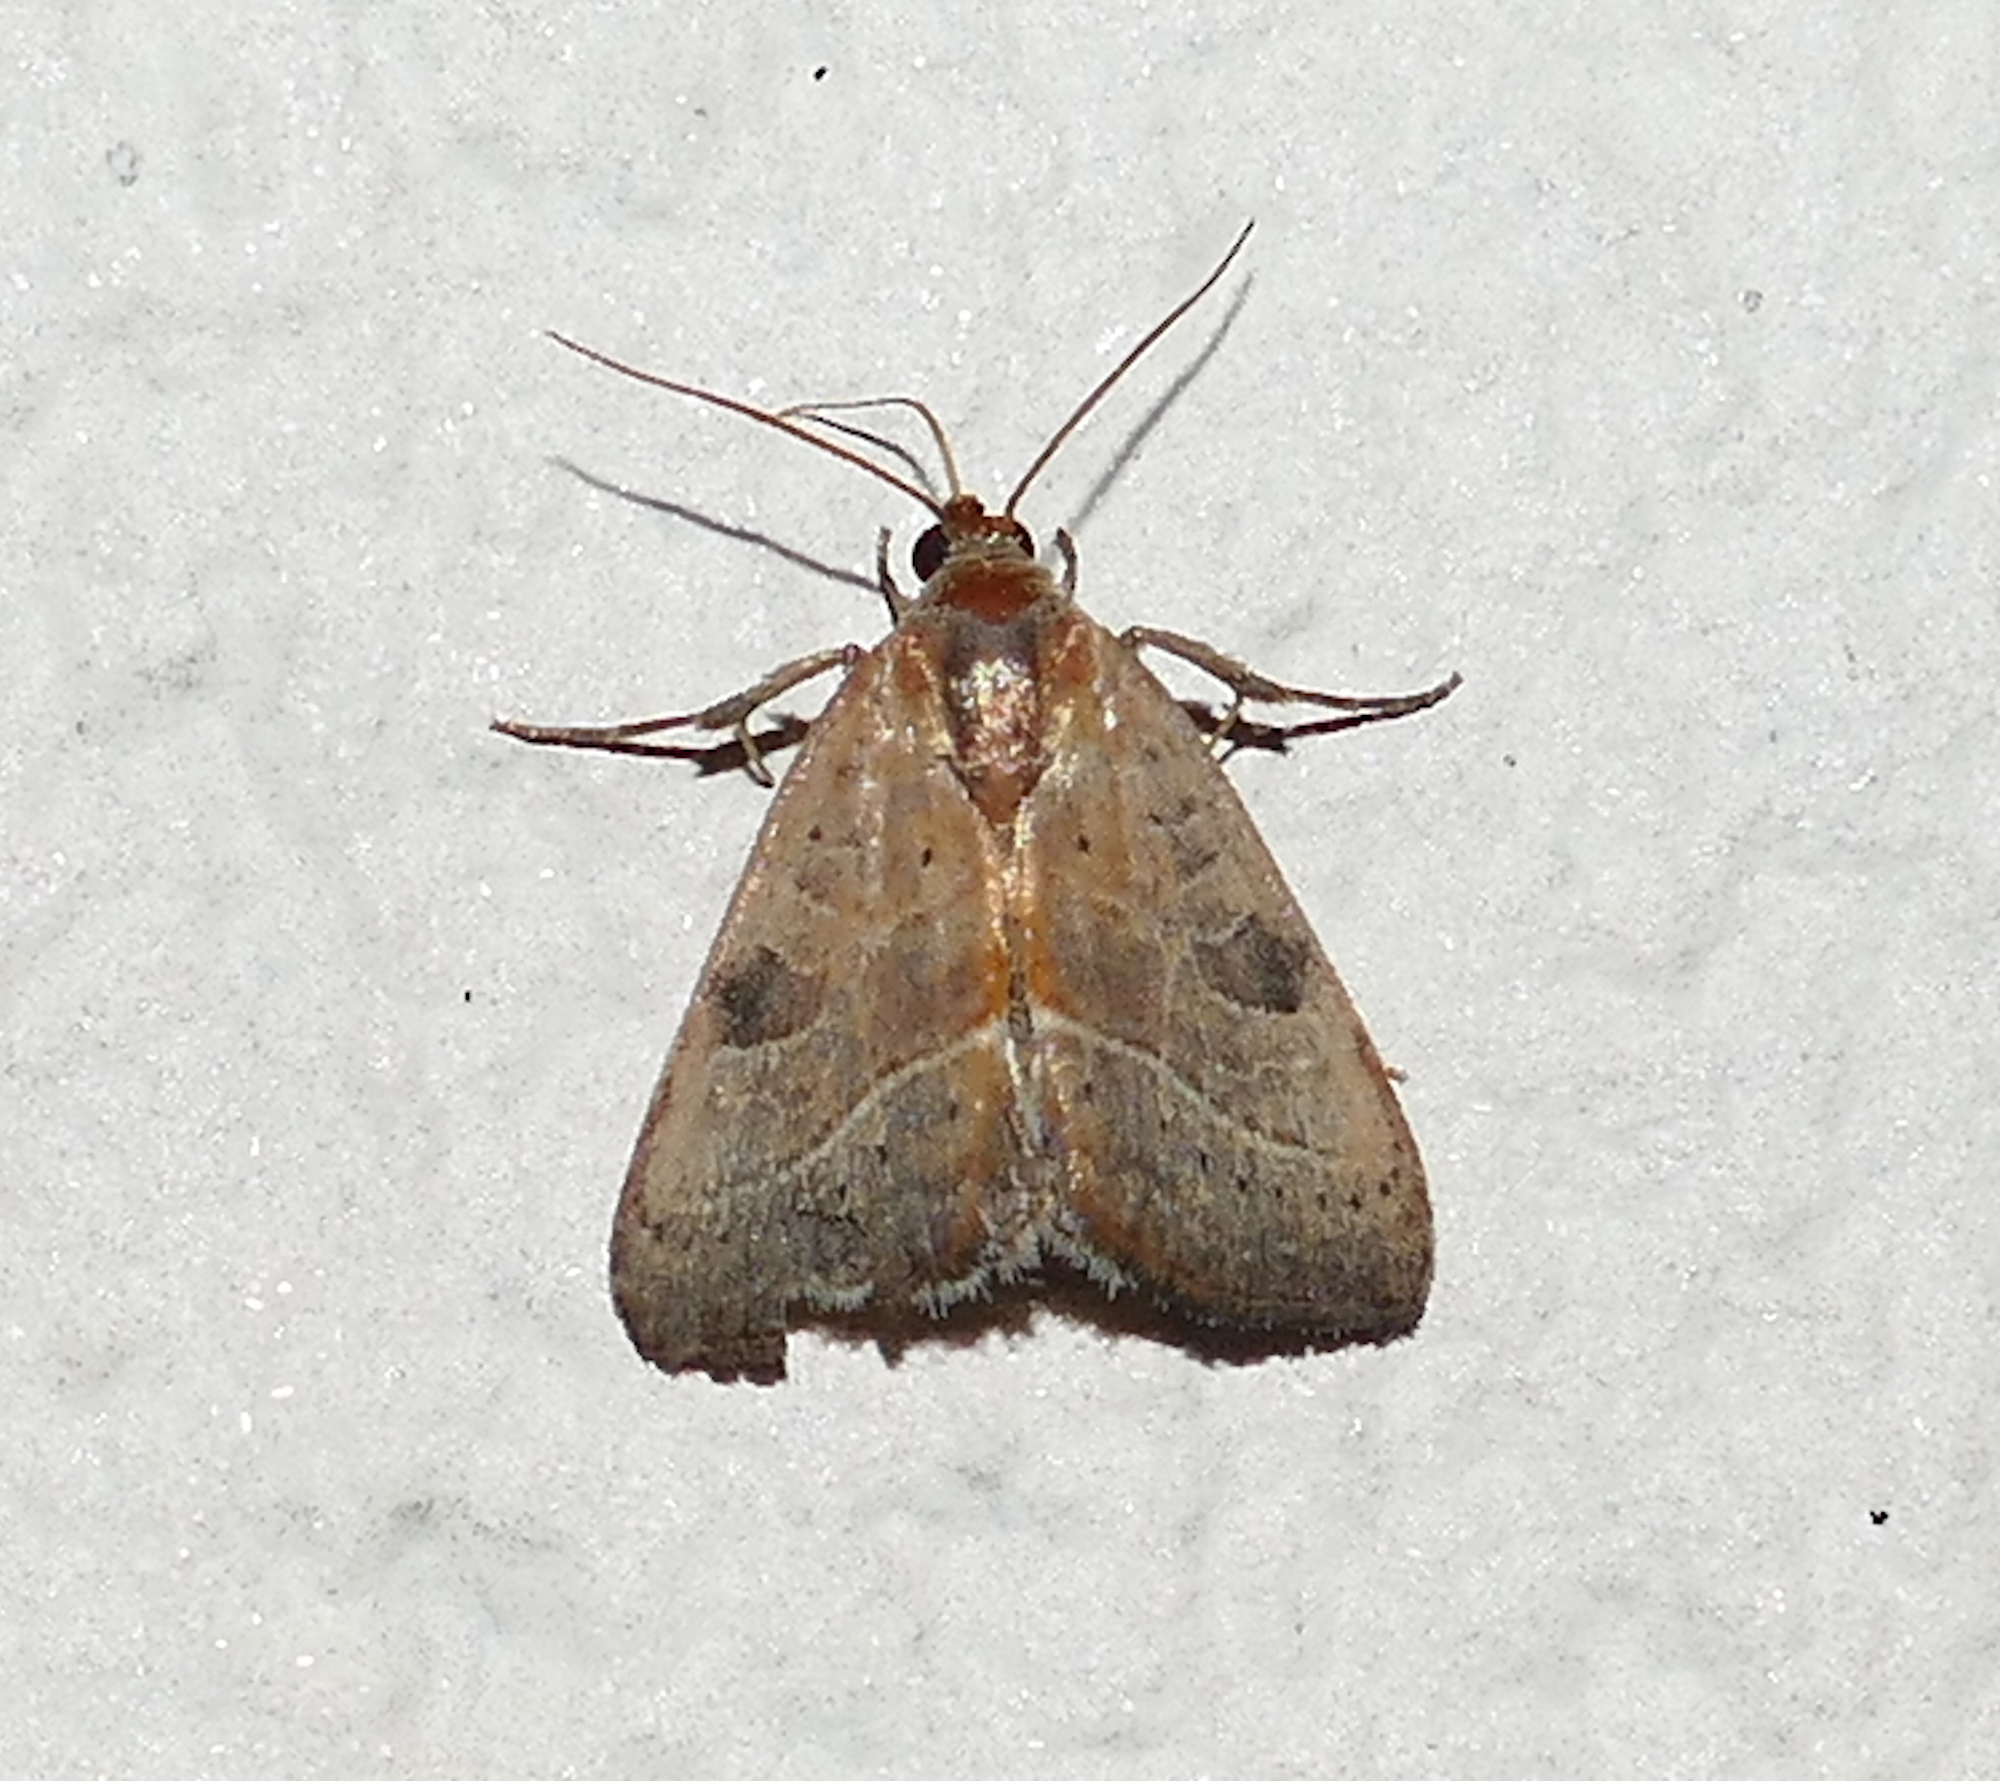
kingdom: Animalia
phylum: Arthropoda
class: Insecta
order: Lepidoptera
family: Noctuidae
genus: Galgula
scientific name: Galgula partita
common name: Wedgeling
